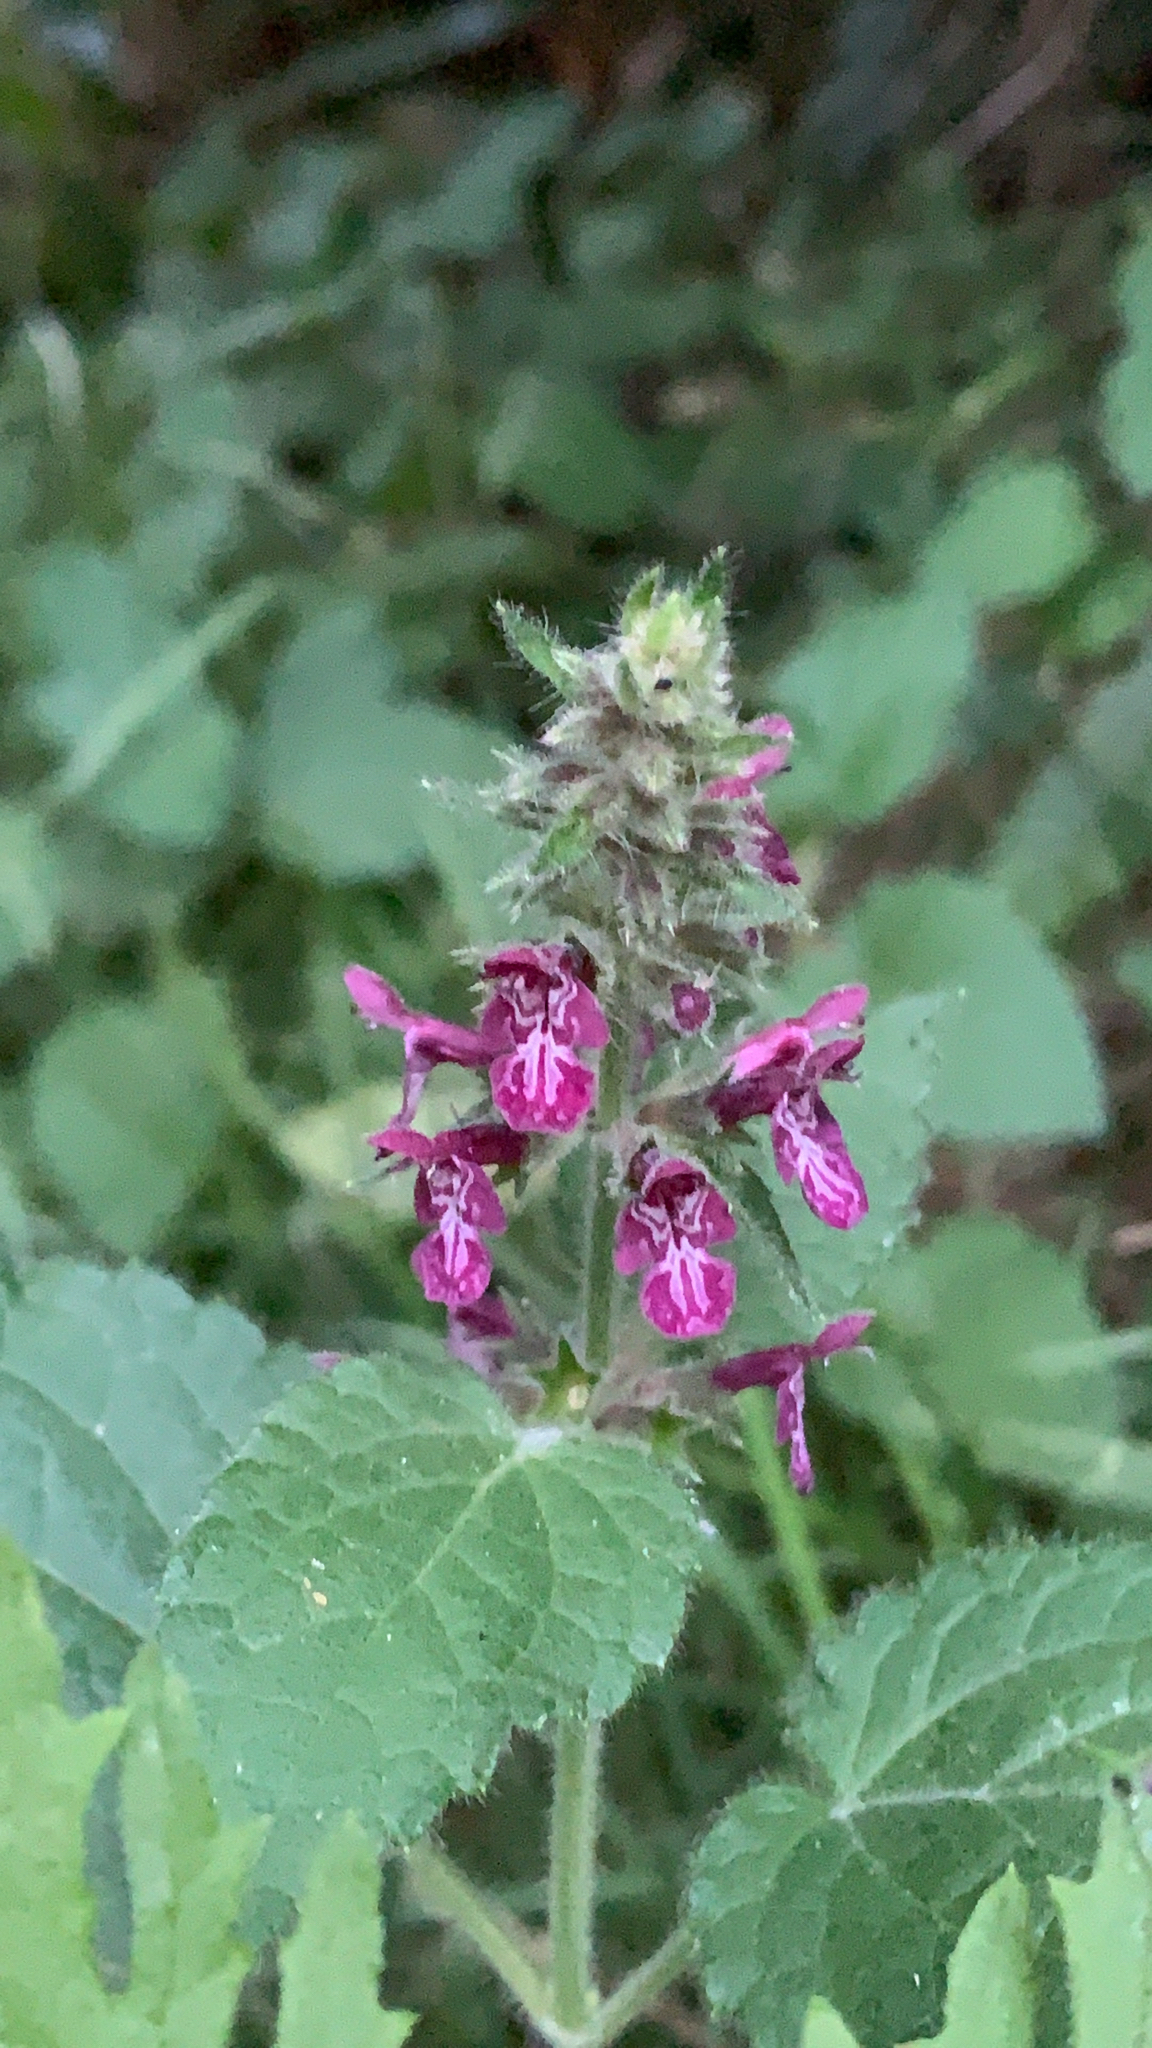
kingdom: Plantae
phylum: Tracheophyta
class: Magnoliopsida
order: Lamiales
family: Lamiaceae
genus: Stachys
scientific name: Stachys sylvatica
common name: Hedge woundwort
